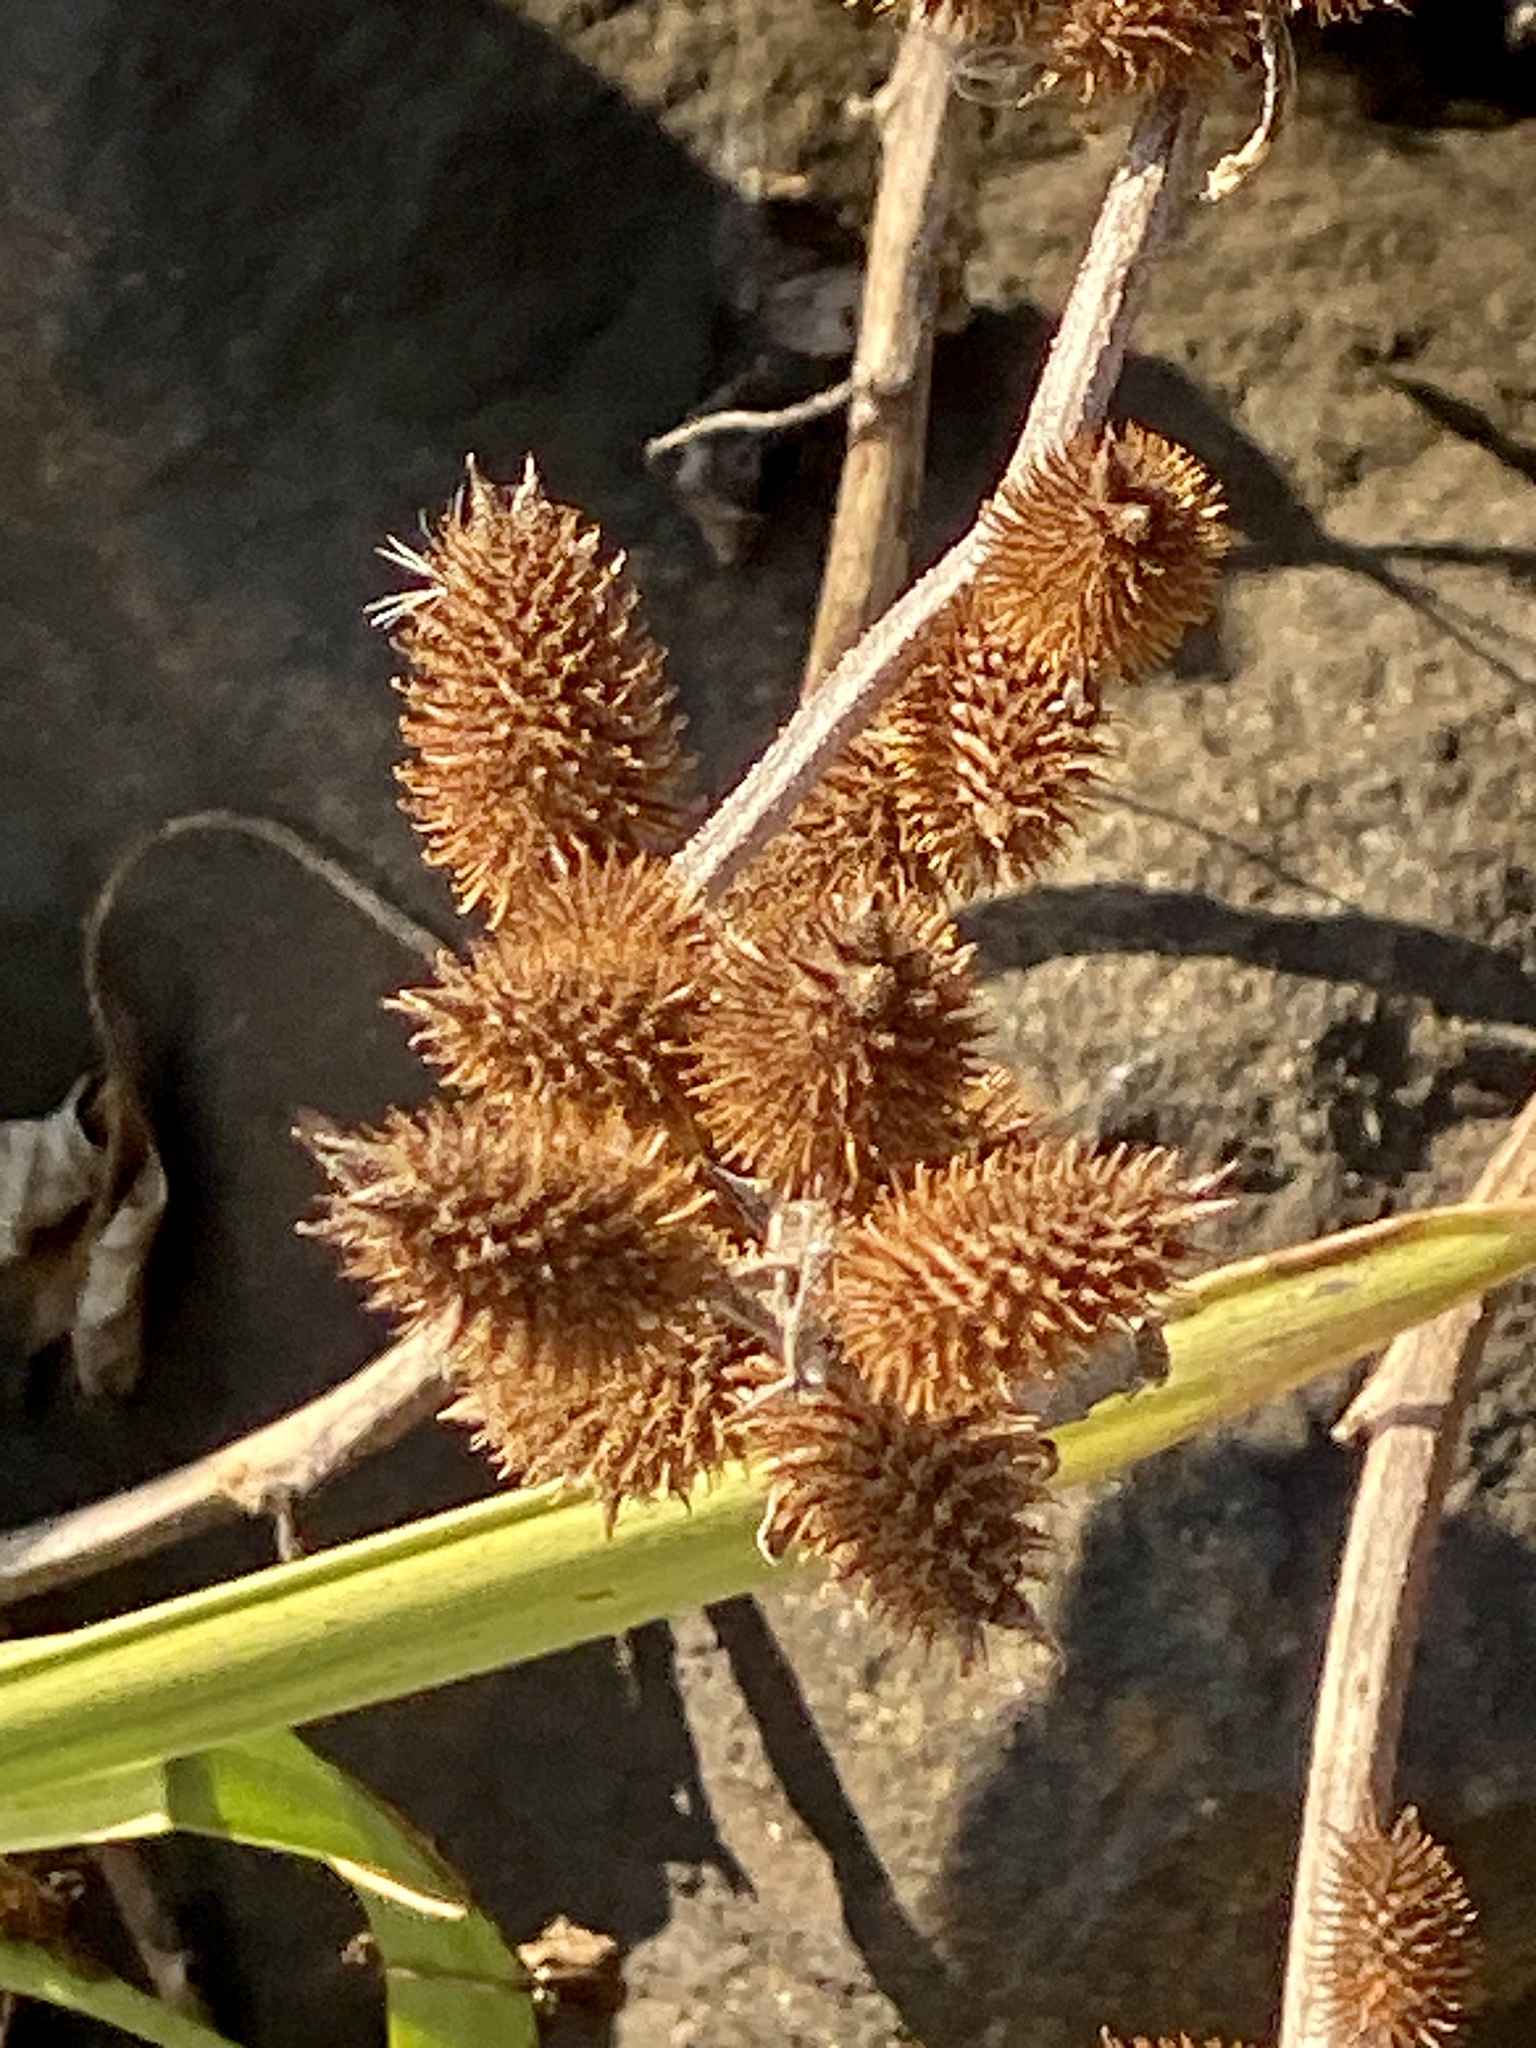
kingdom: Plantae
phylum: Tracheophyta
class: Magnoliopsida
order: Asterales
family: Asteraceae
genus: Xanthium
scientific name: Xanthium strumarium
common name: Rough cocklebur
